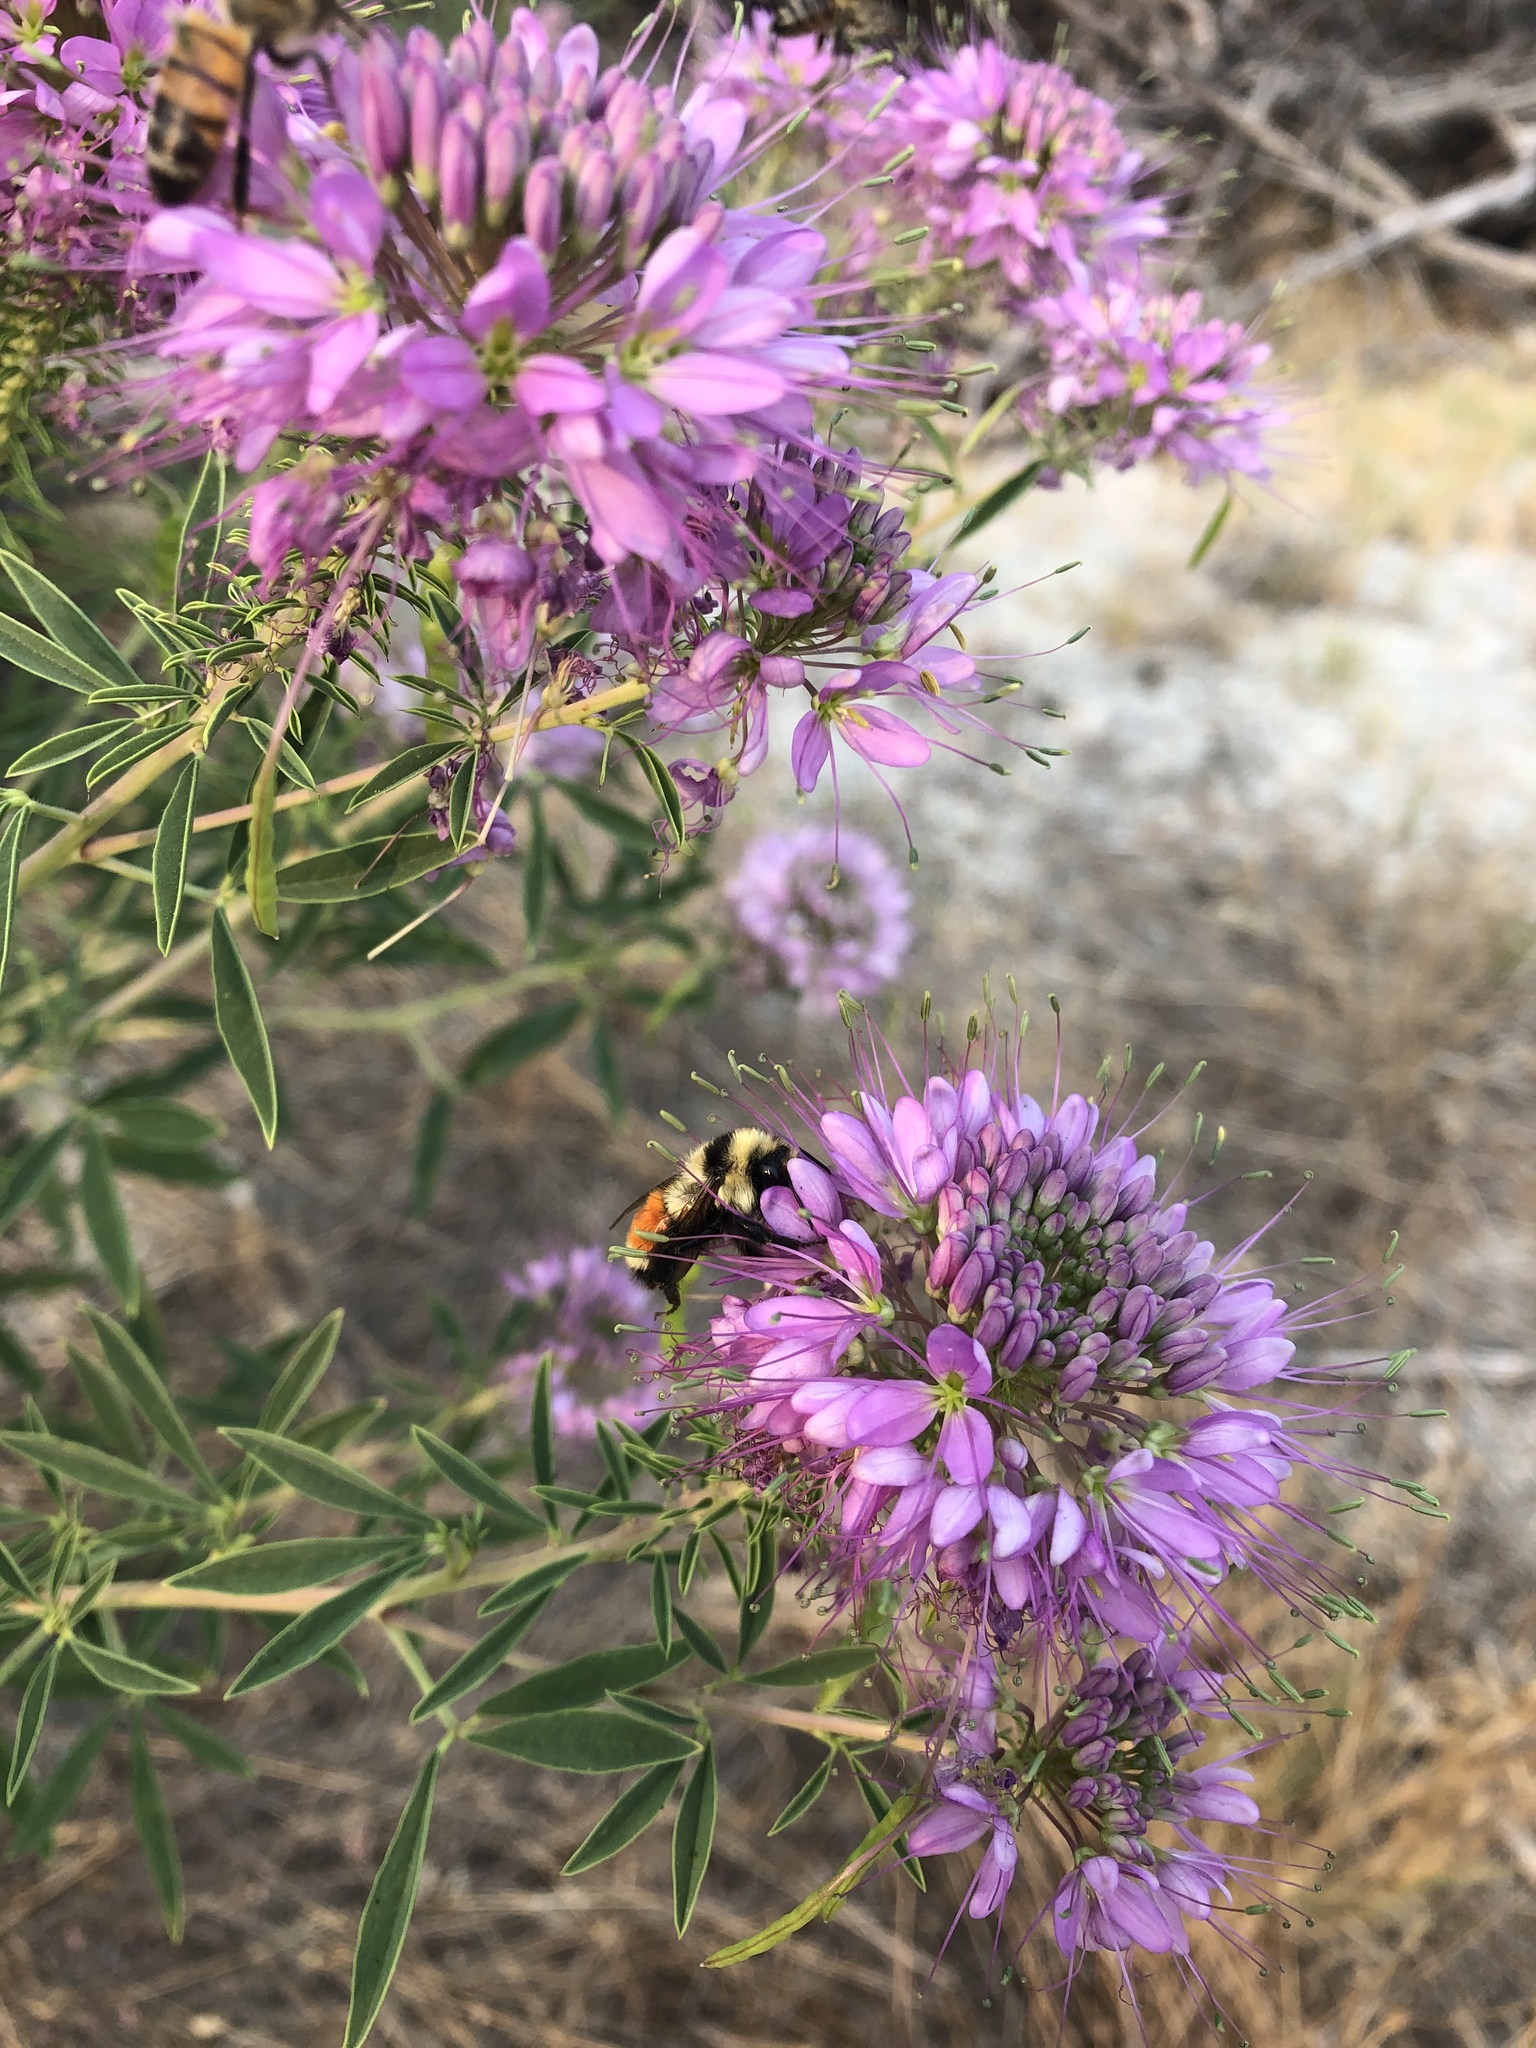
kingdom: Animalia
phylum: Arthropoda
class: Insecta
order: Hymenoptera
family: Apidae
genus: Bombus
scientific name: Bombus huntii
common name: Hunt bumble bee
